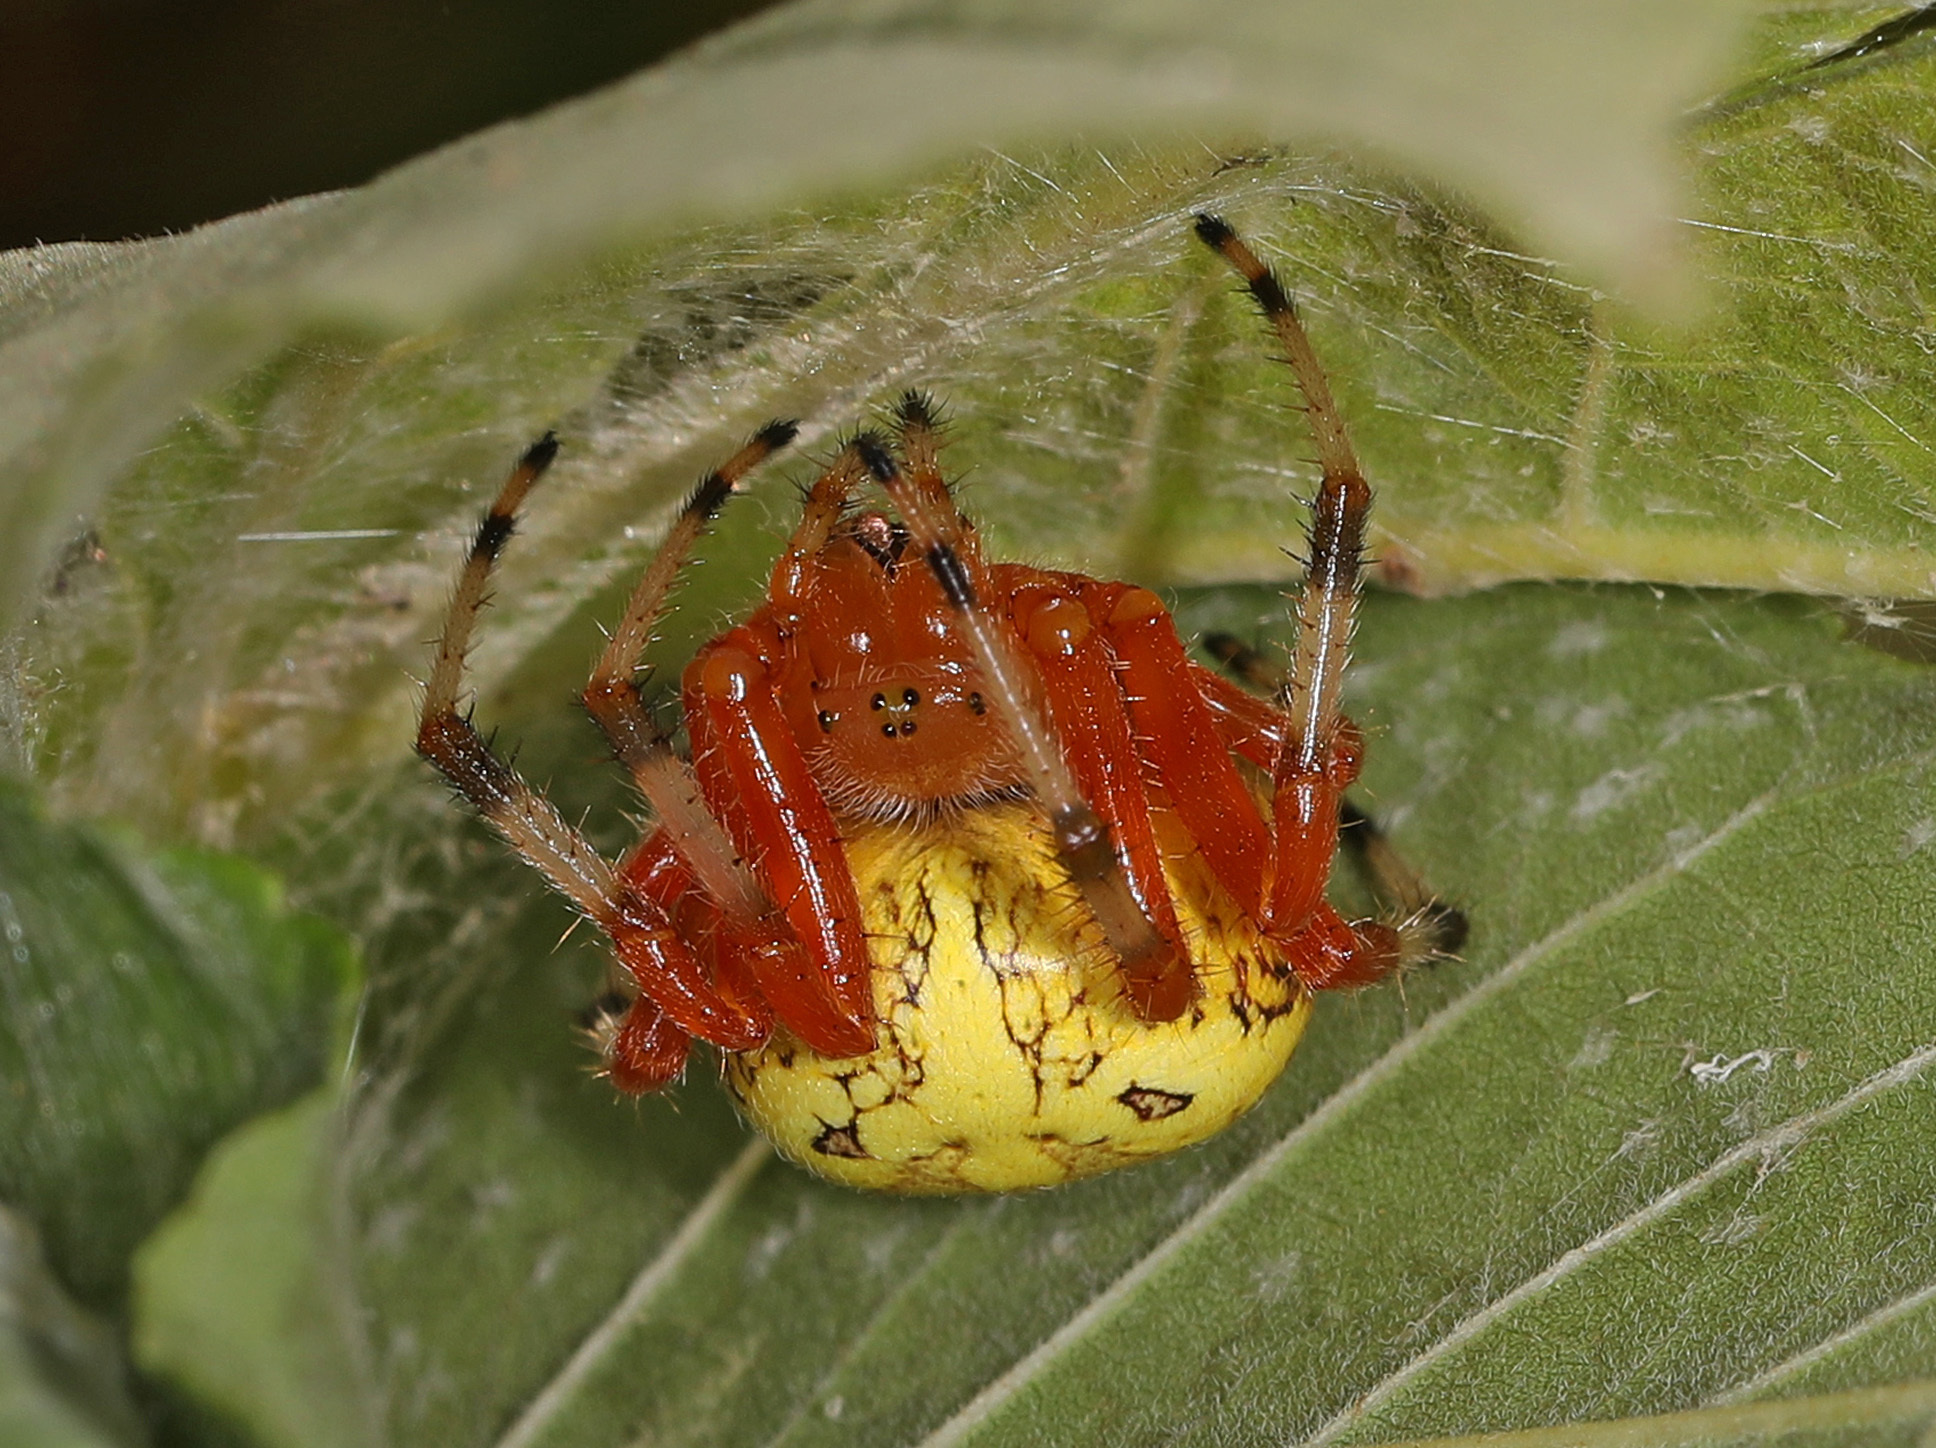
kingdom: Animalia
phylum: Arthropoda
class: Arachnida
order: Araneae
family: Araneidae
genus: Araneus
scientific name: Araneus marmoreus
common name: Marbled orbweaver
